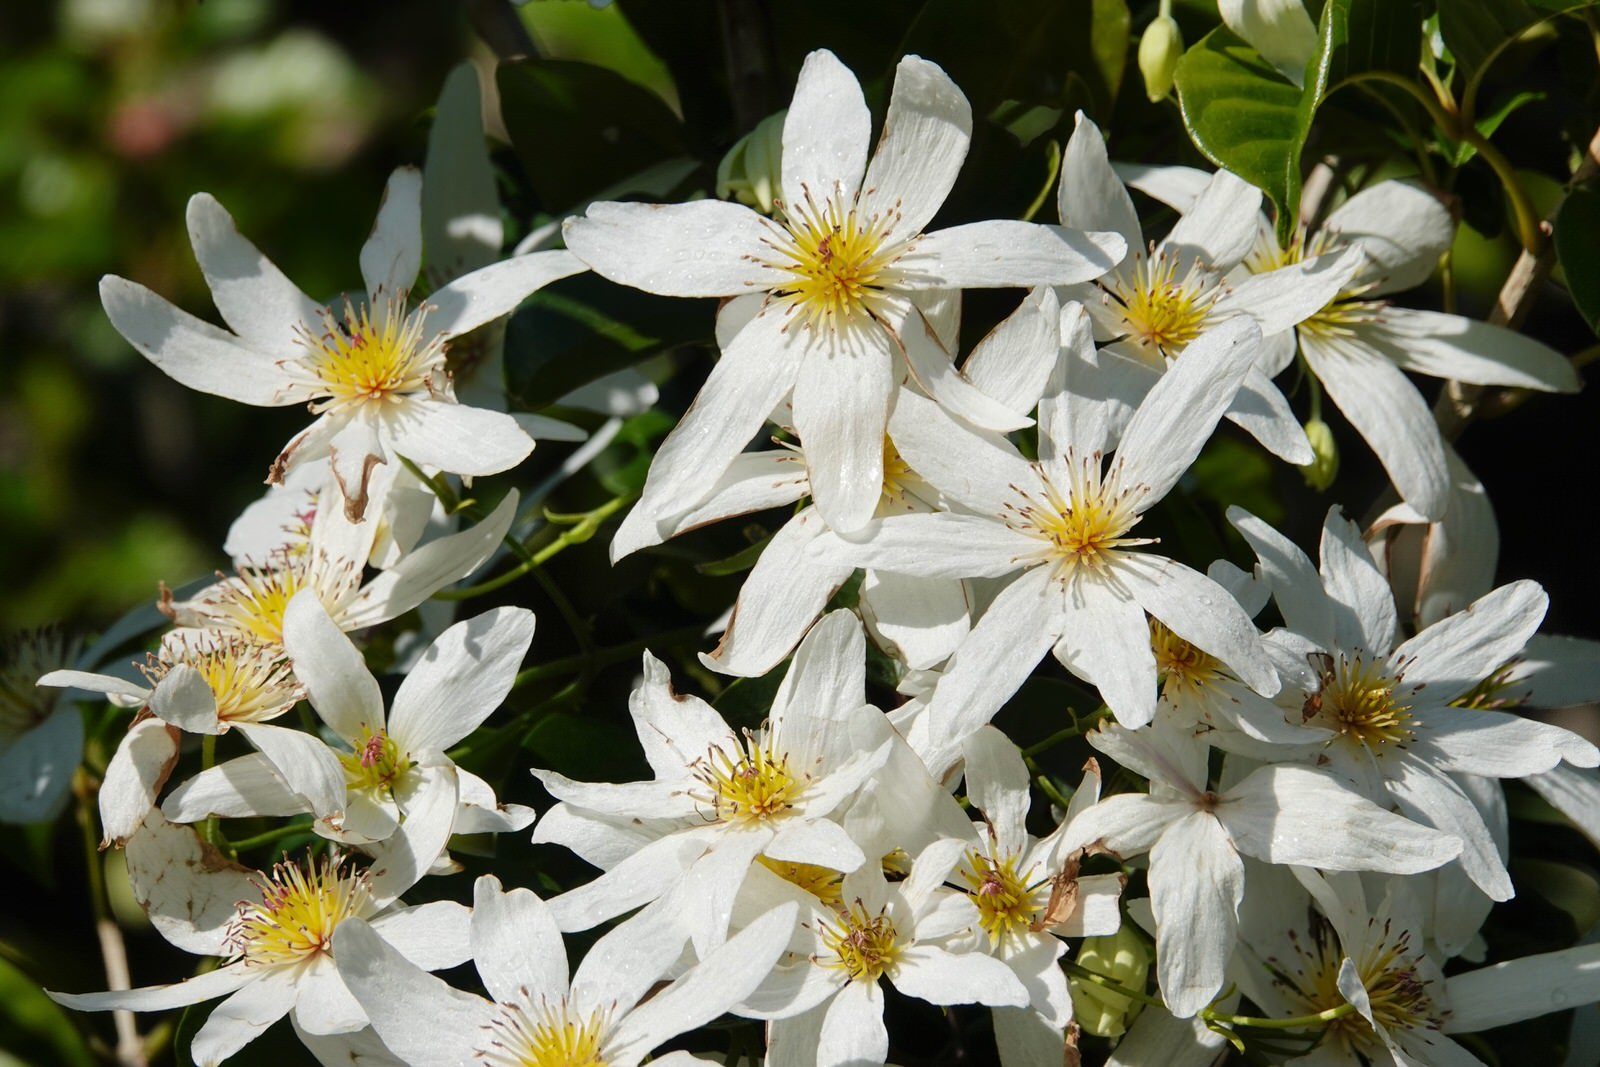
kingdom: Plantae
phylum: Tracheophyta
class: Magnoliopsida
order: Ranunculales
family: Ranunculaceae
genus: Clematis
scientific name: Clematis paniculata
